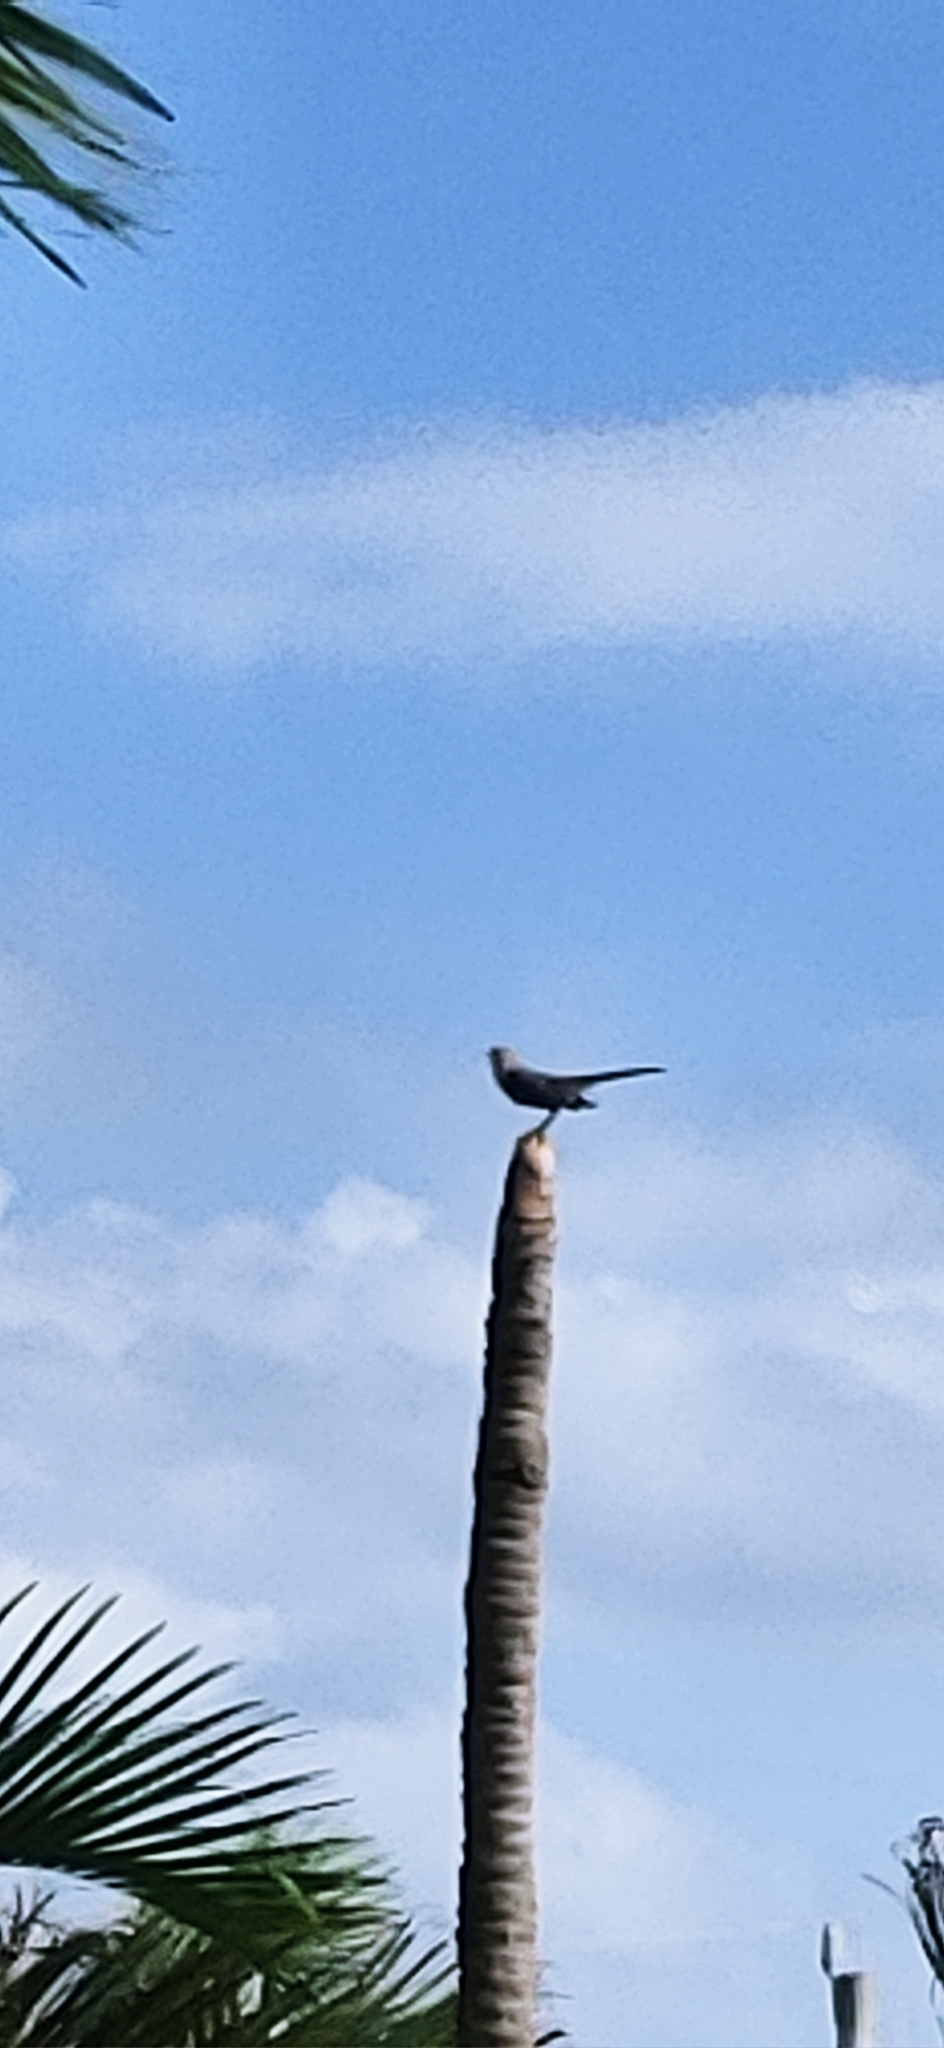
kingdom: Animalia
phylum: Chordata
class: Aves
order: Passeriformes
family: Mimidae
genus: Mimus
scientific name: Mimus polyglottos
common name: Northern mockingbird
